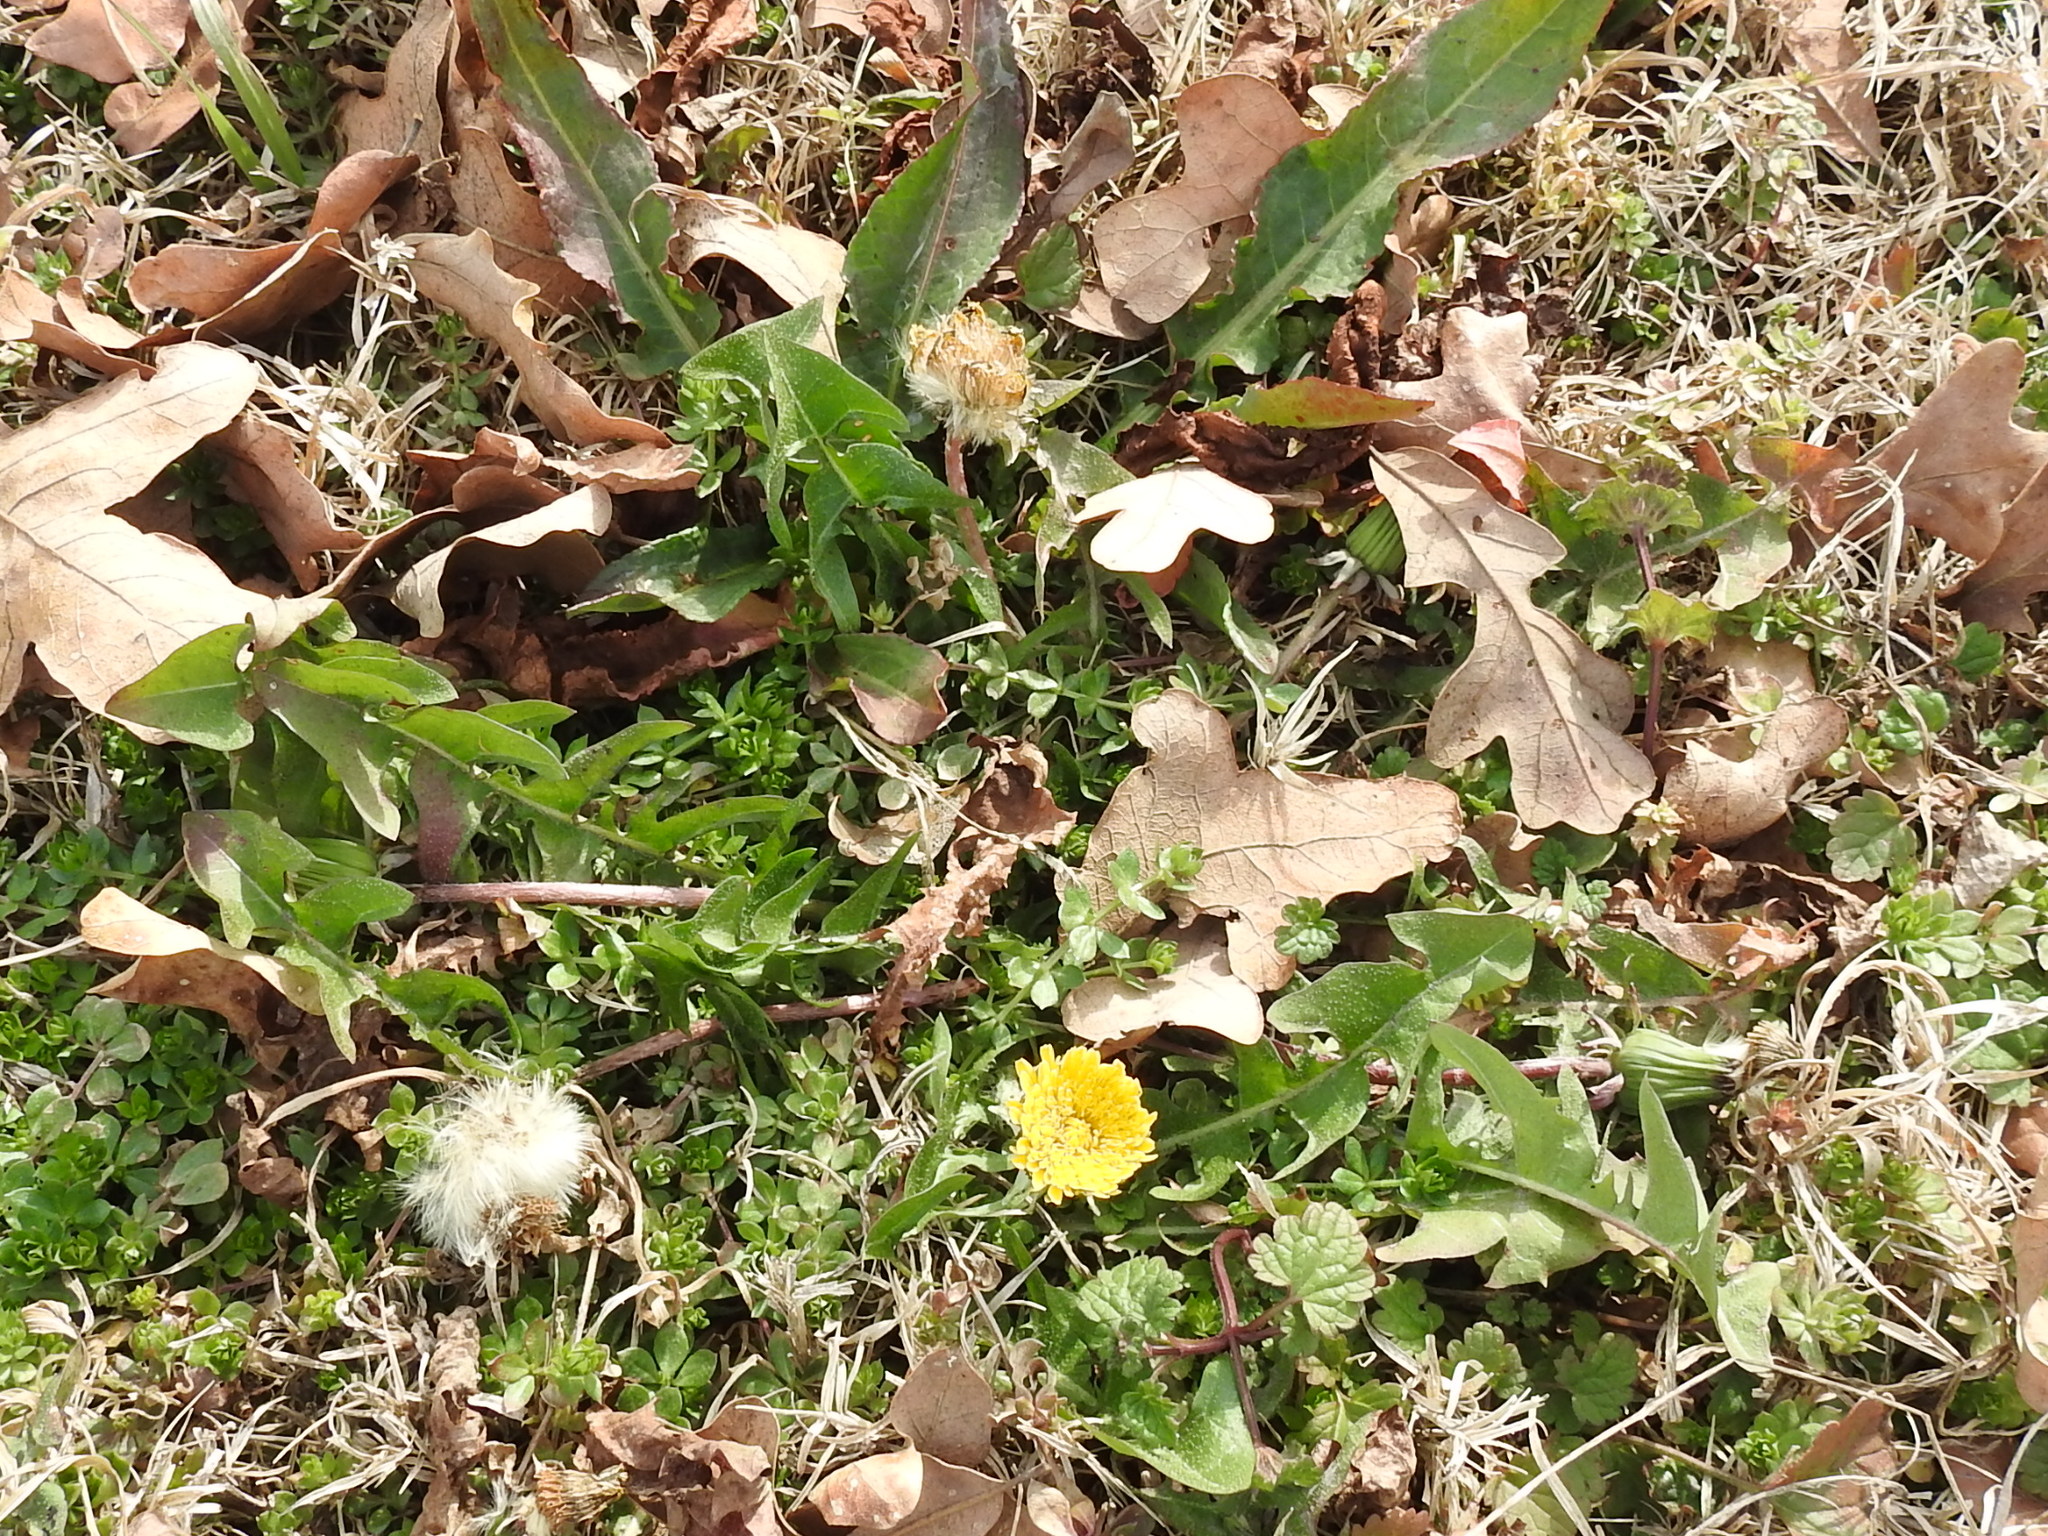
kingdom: Plantae
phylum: Tracheophyta
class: Magnoliopsida
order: Asterales
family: Asteraceae
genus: Taraxacum
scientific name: Taraxacum officinale
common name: Common dandelion
